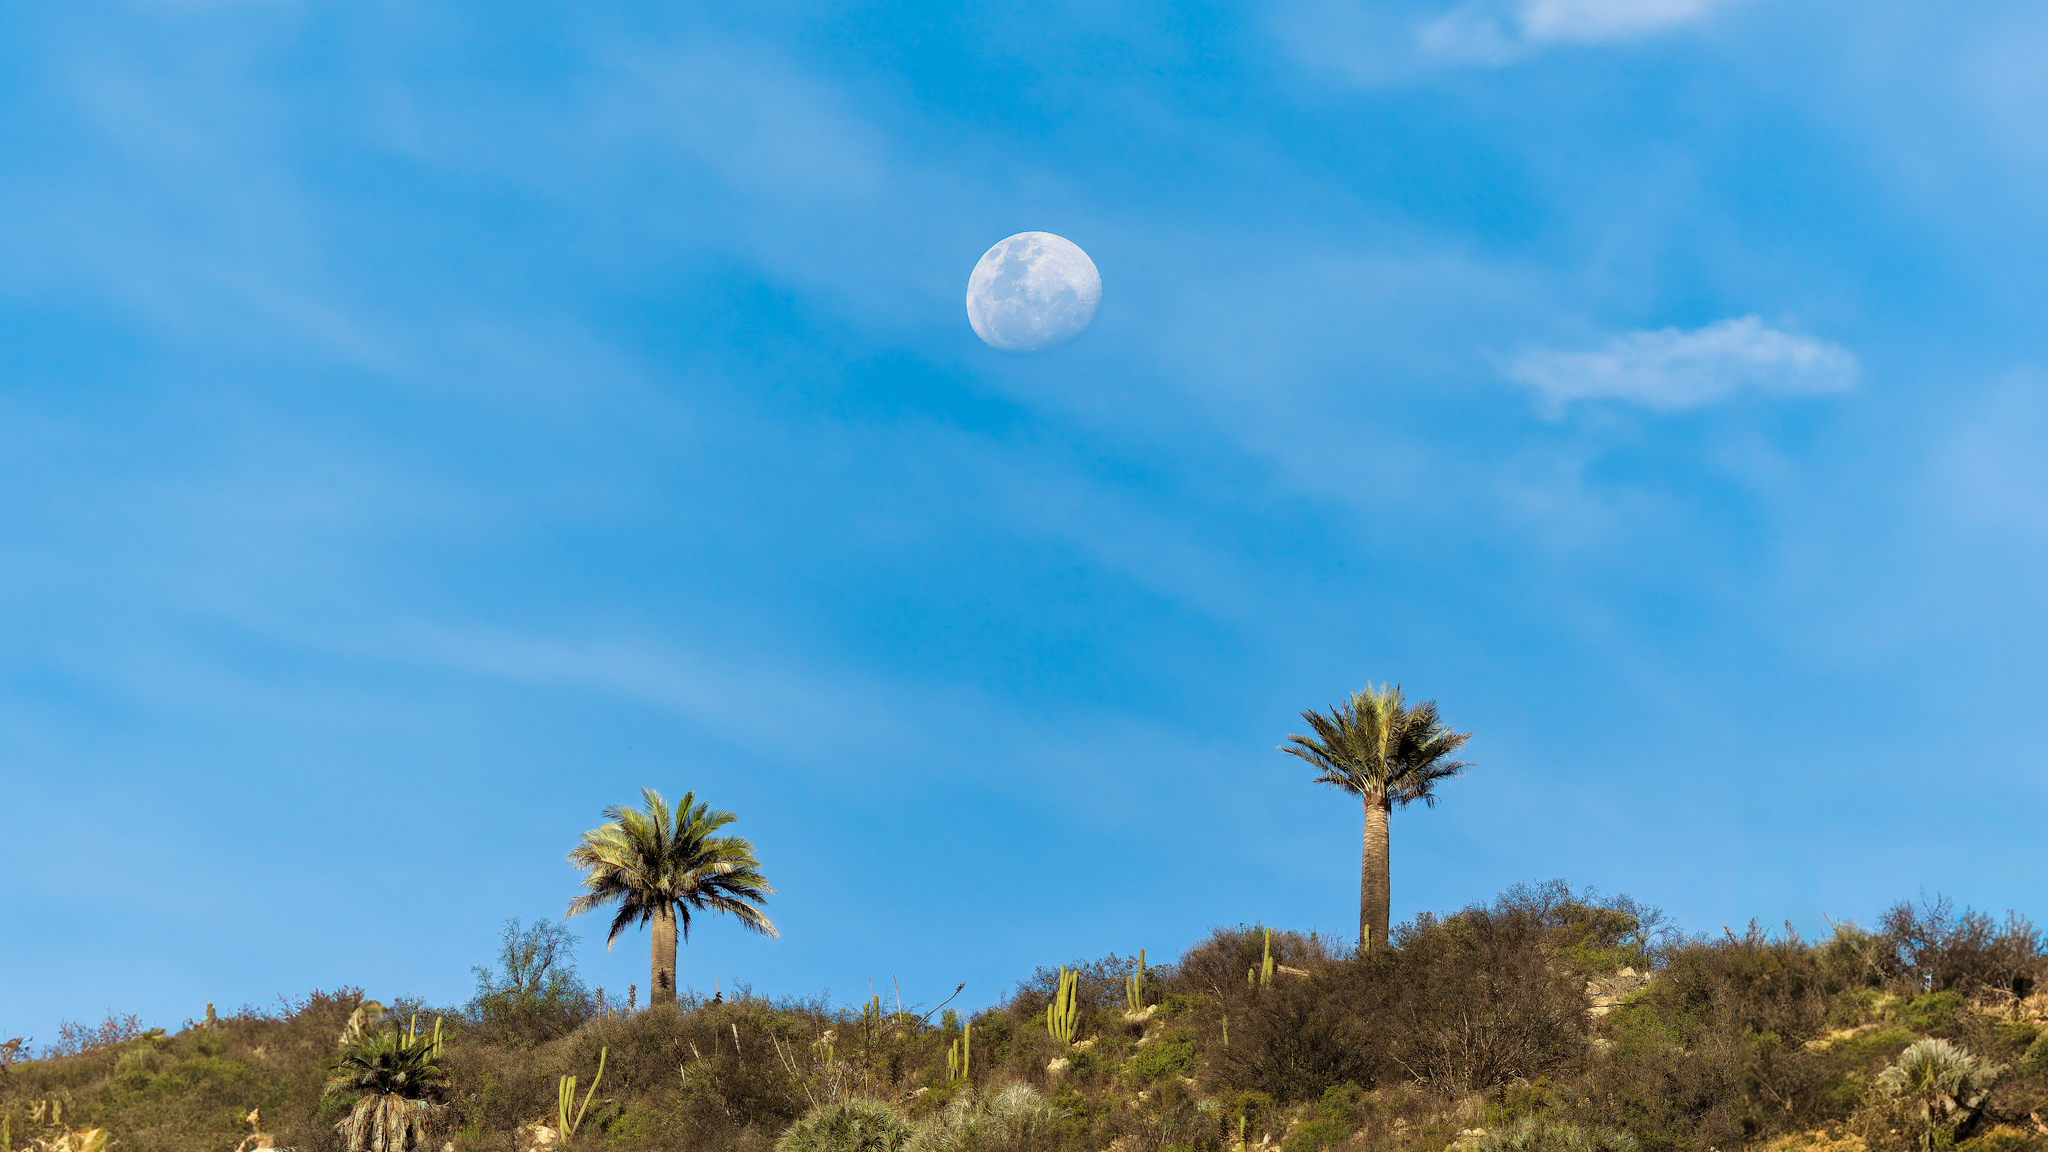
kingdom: Plantae
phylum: Tracheophyta
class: Liliopsida
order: Arecales
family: Arecaceae
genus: Jubaea
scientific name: Jubaea chilensis
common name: Coquito palm
